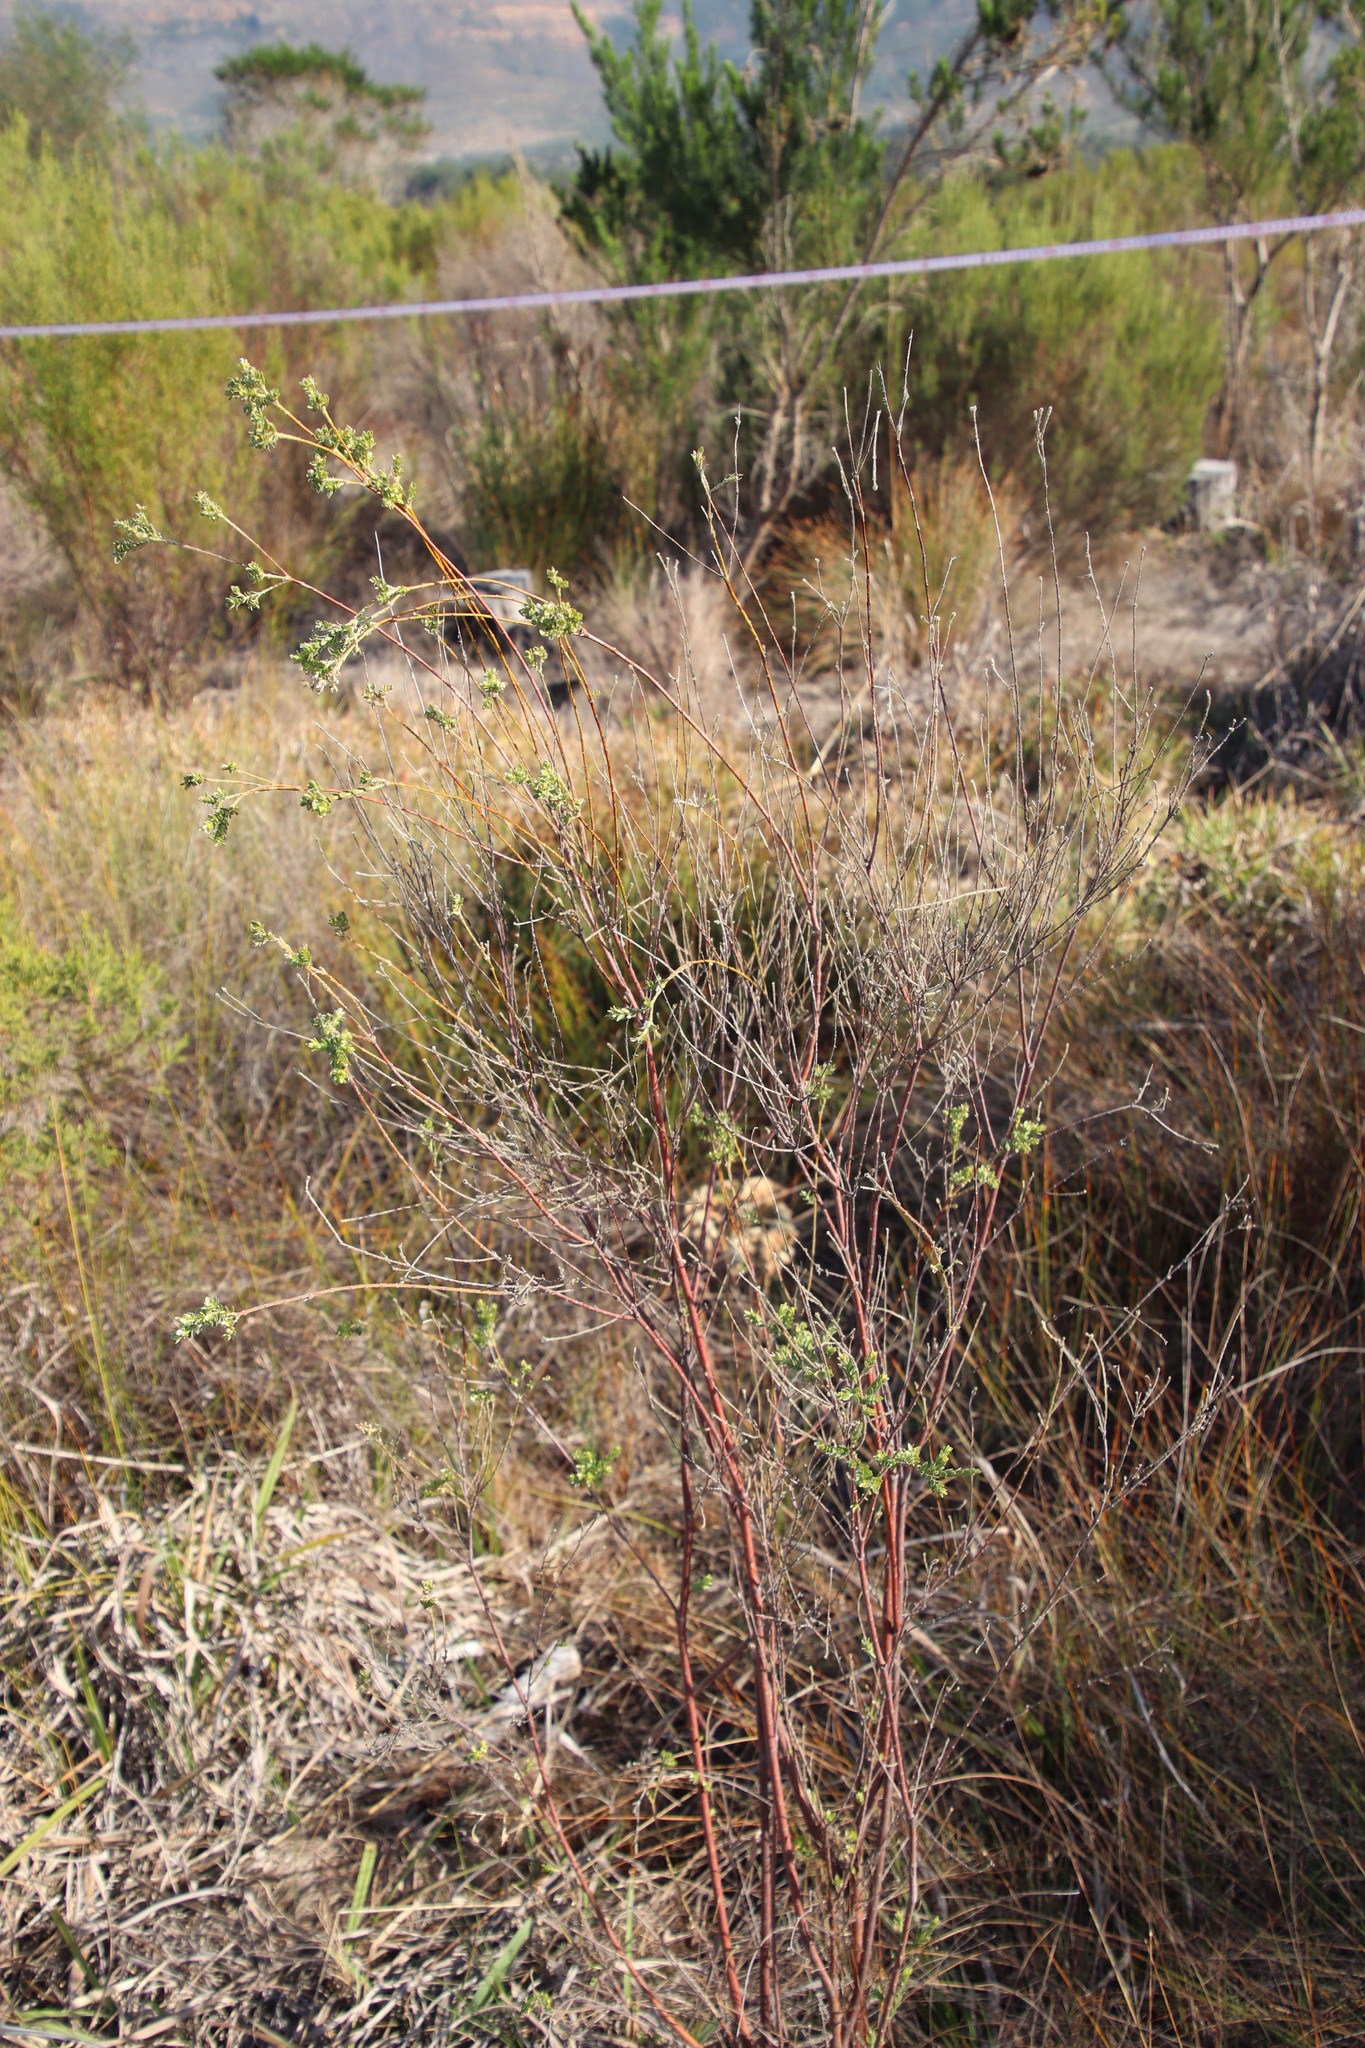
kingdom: Plantae
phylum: Tracheophyta
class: Magnoliopsida
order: Malvales
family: Thymelaeaceae
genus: Gnidia
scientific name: Gnidia sericea
